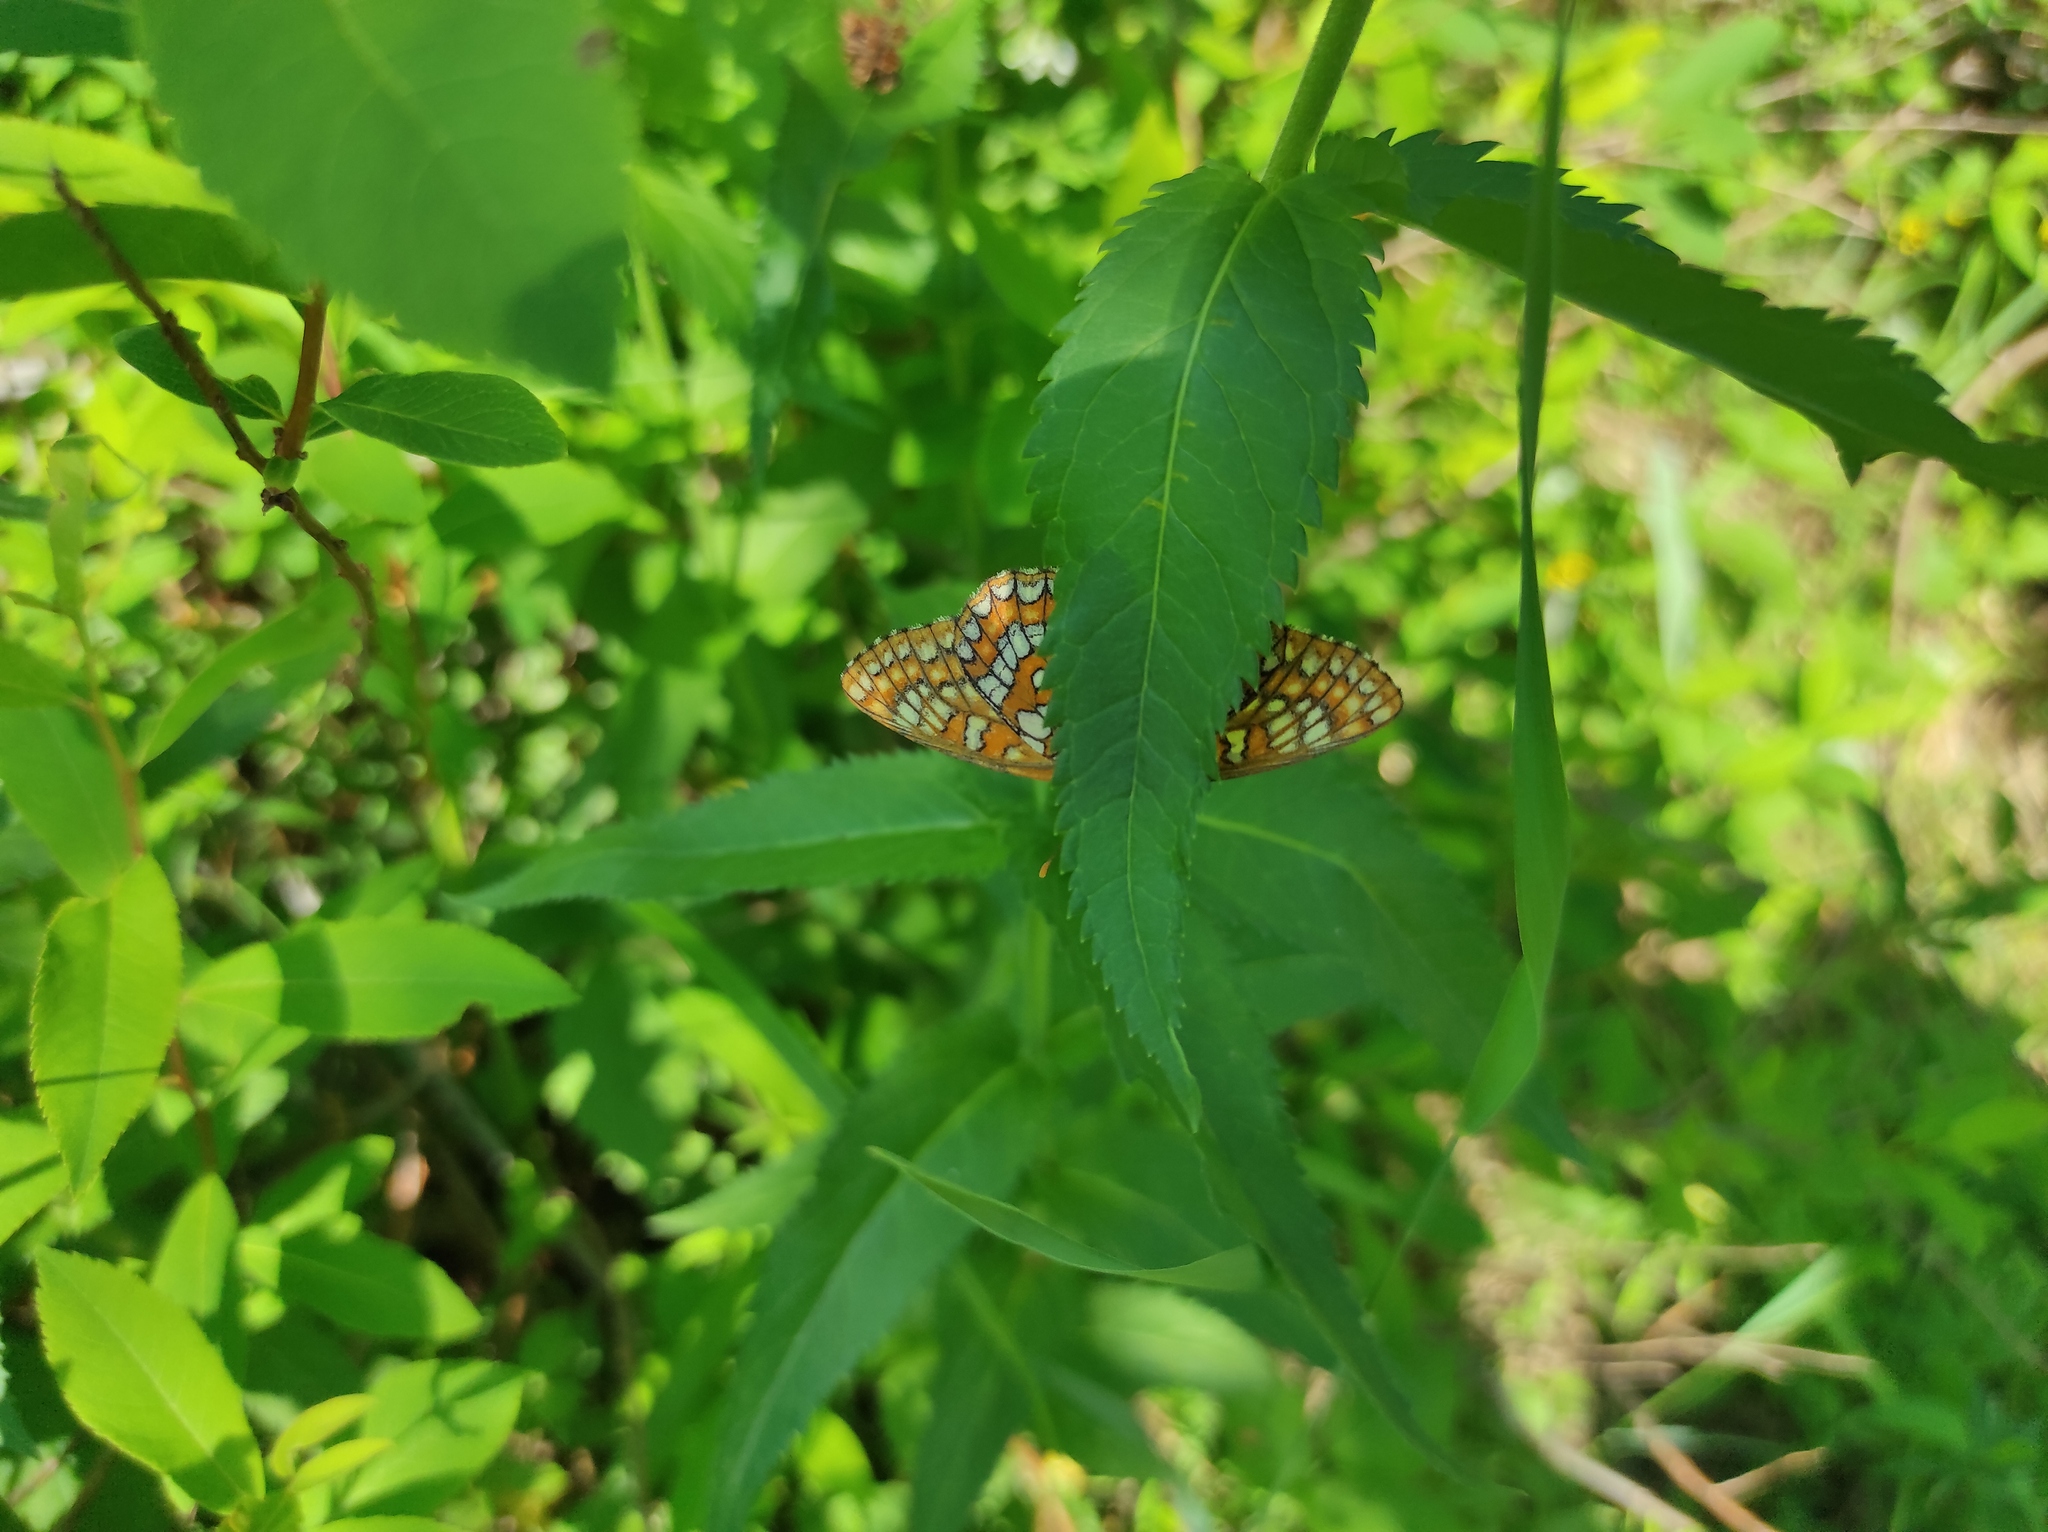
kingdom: Plantae
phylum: Tracheophyta
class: Magnoliopsida
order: Lamiales
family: Plantaginaceae
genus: Veronica
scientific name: Veronica longifolia
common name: Garden speedwell
